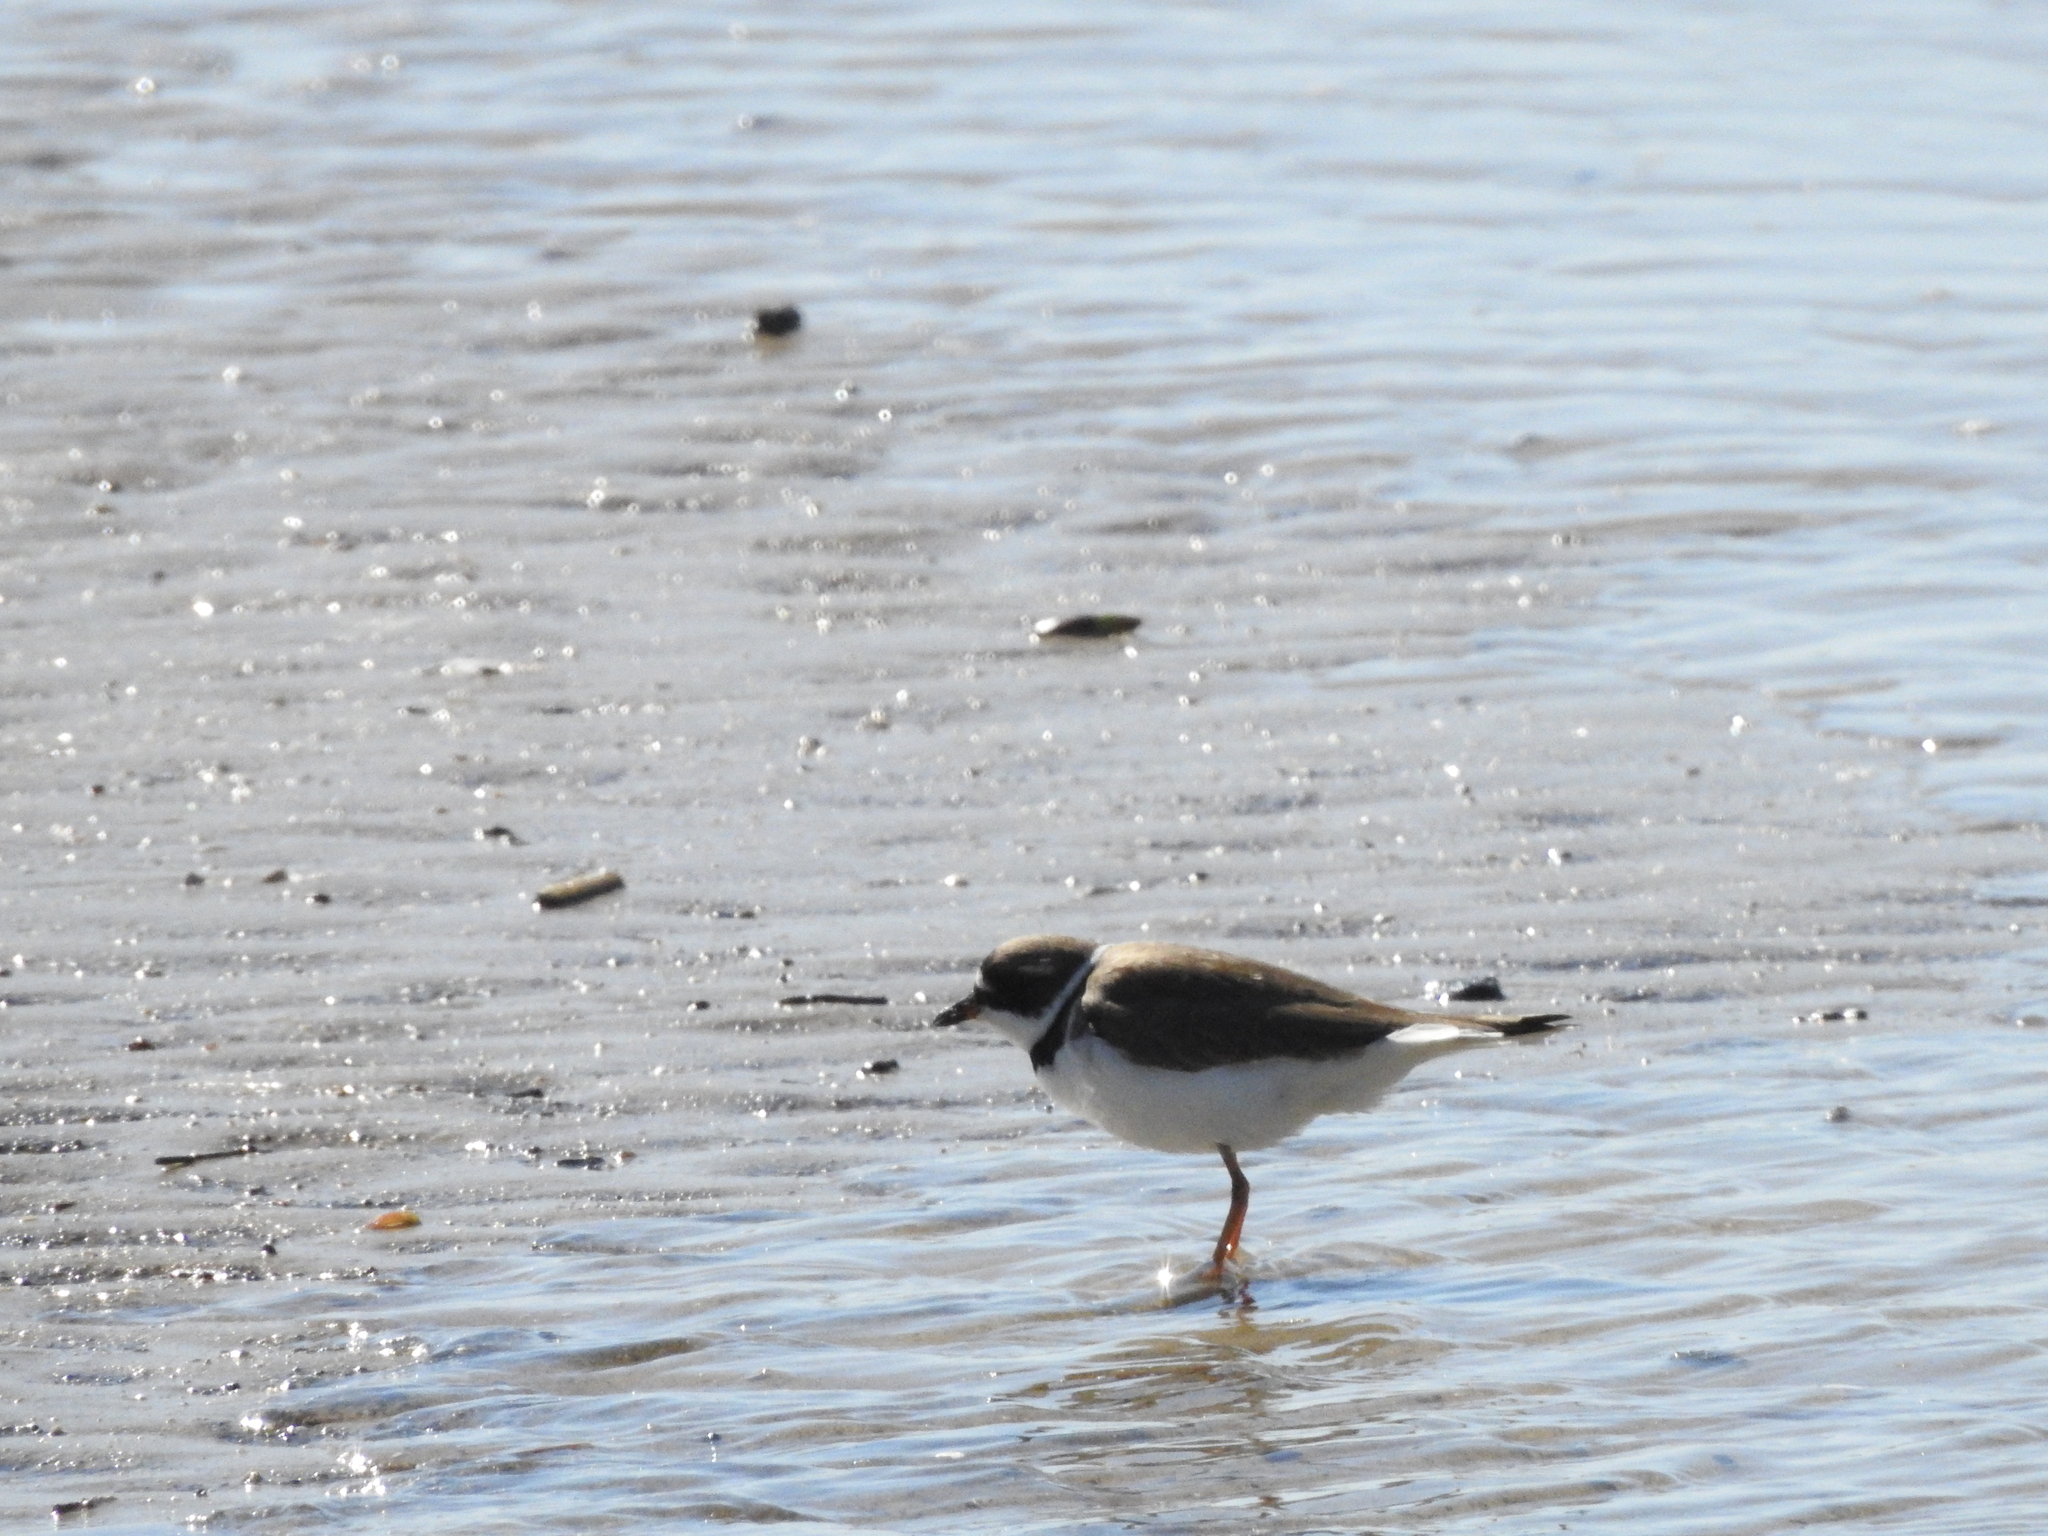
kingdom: Animalia
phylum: Chordata
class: Aves
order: Charadriiformes
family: Charadriidae
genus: Charadrius
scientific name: Charadrius semipalmatus
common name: Semipalmated plover
